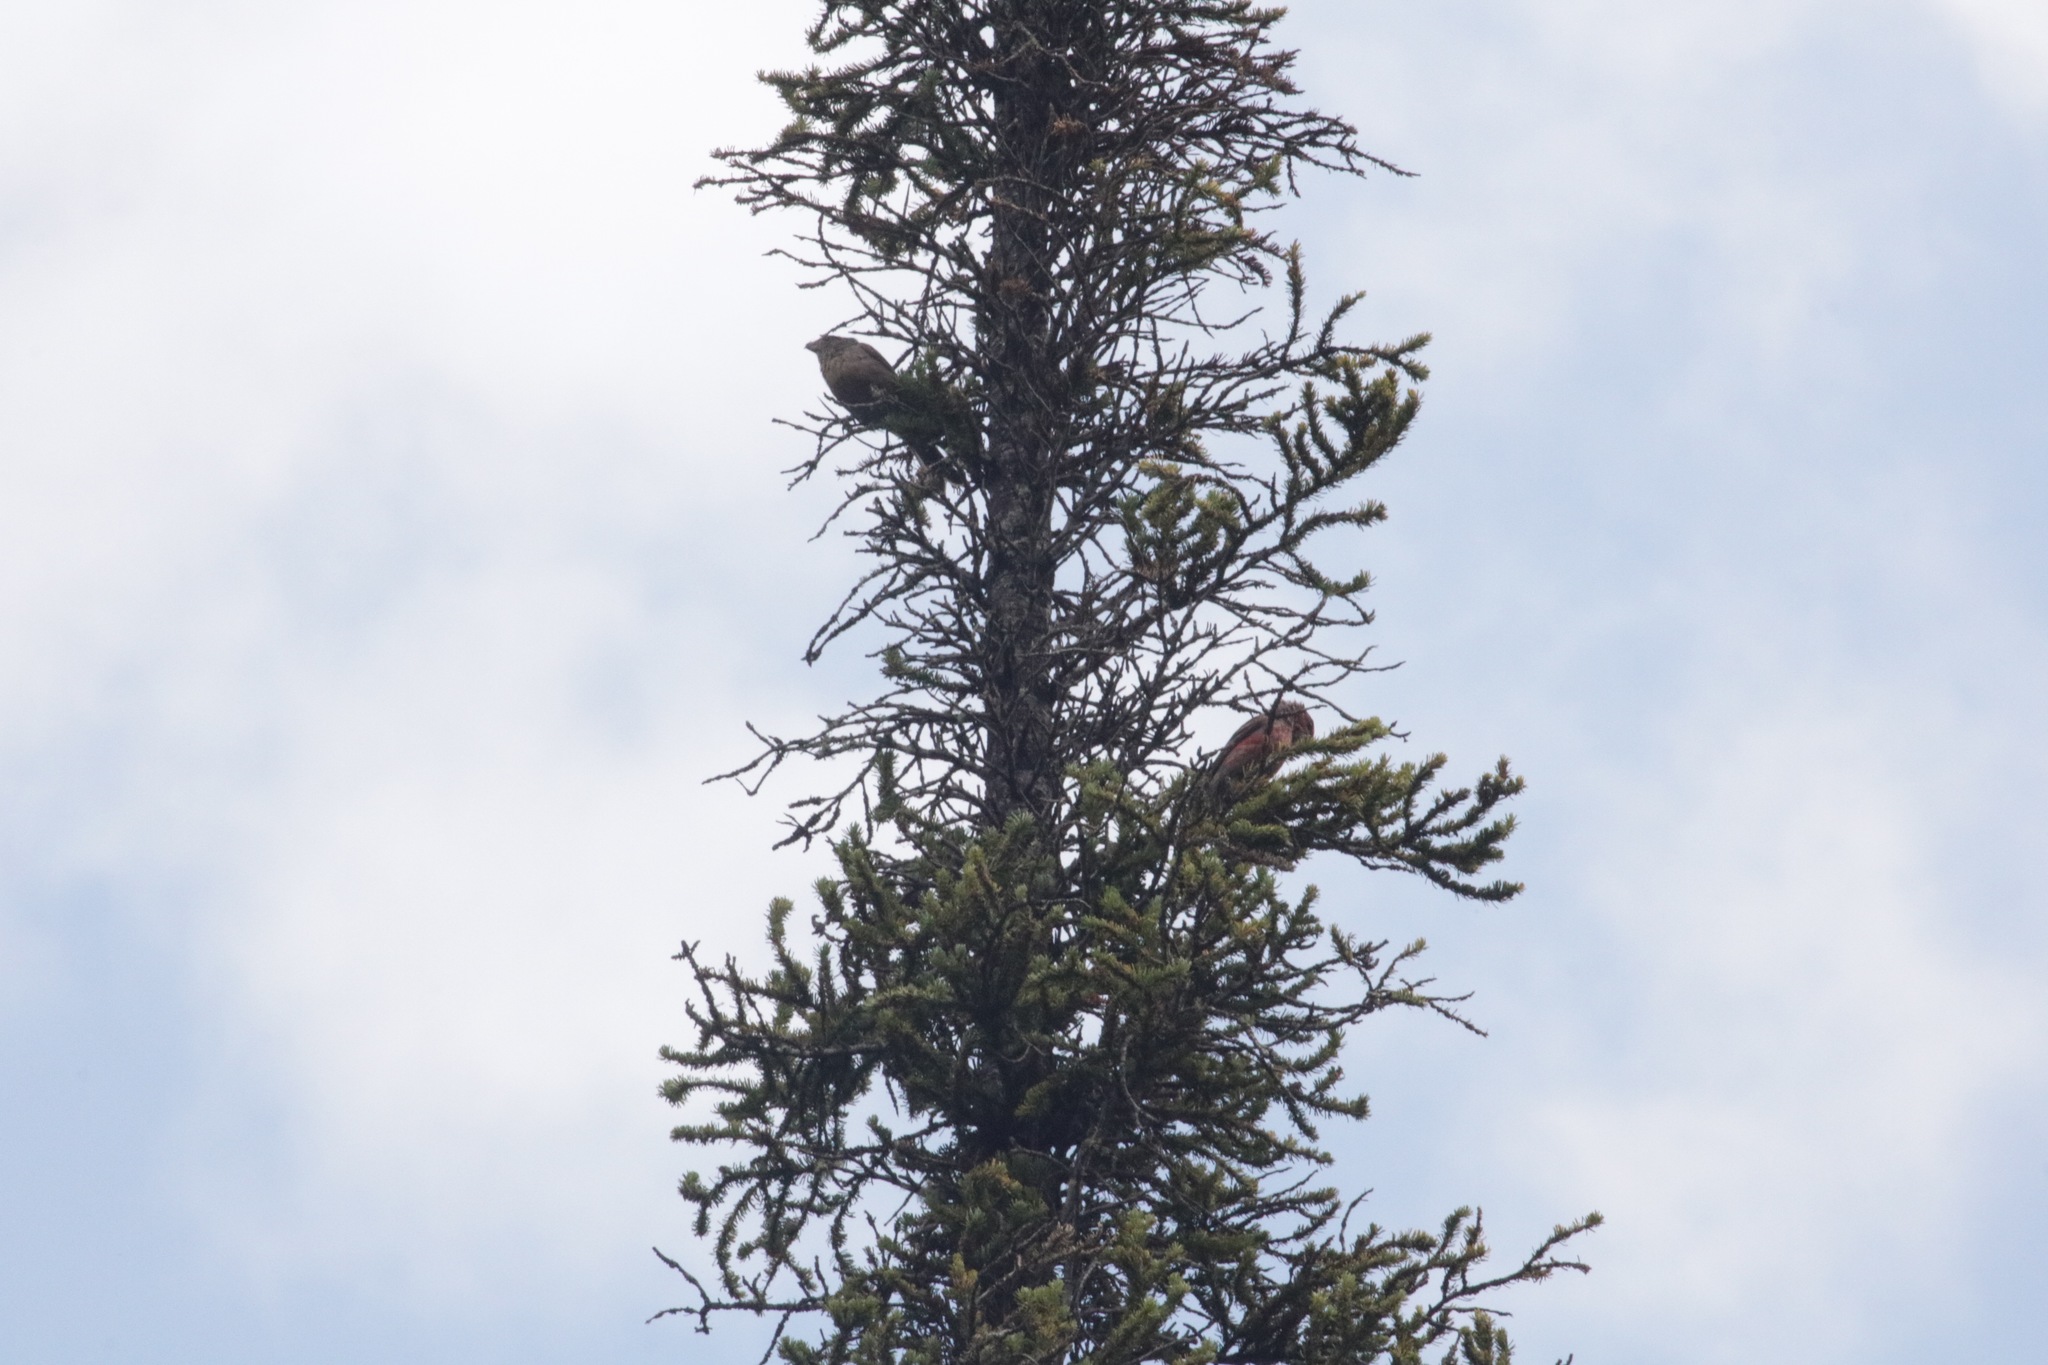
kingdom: Animalia
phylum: Chordata
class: Aves
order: Passeriformes
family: Fringillidae
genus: Loxia
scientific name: Loxia curvirostra
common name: Red crossbill
